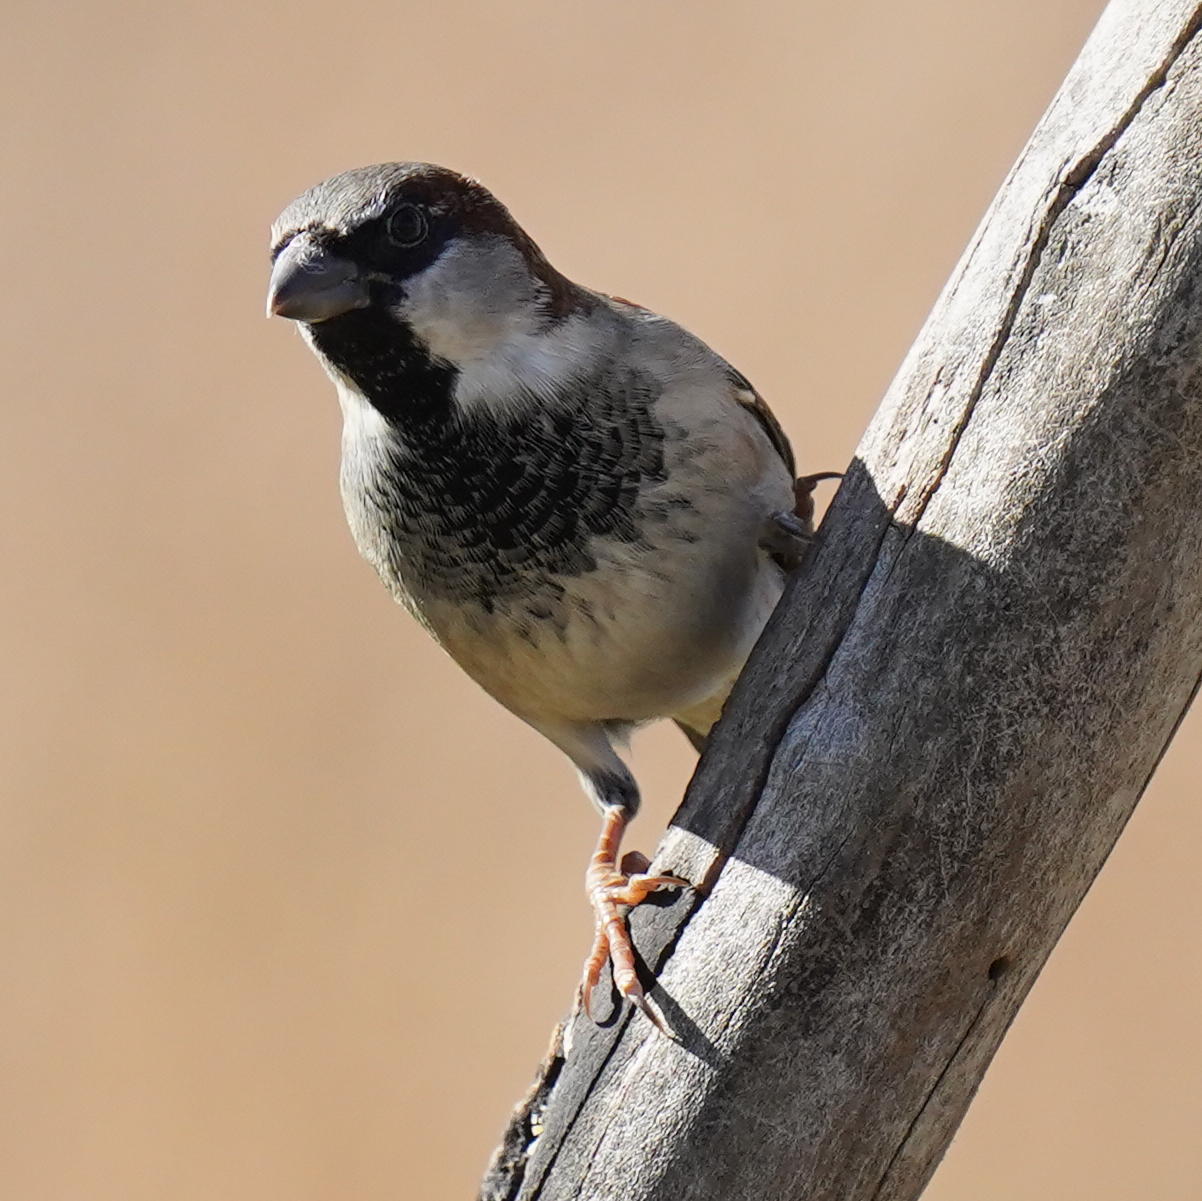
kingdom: Animalia
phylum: Chordata
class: Aves
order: Passeriformes
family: Passeridae
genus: Passer
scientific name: Passer domesticus
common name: House sparrow
